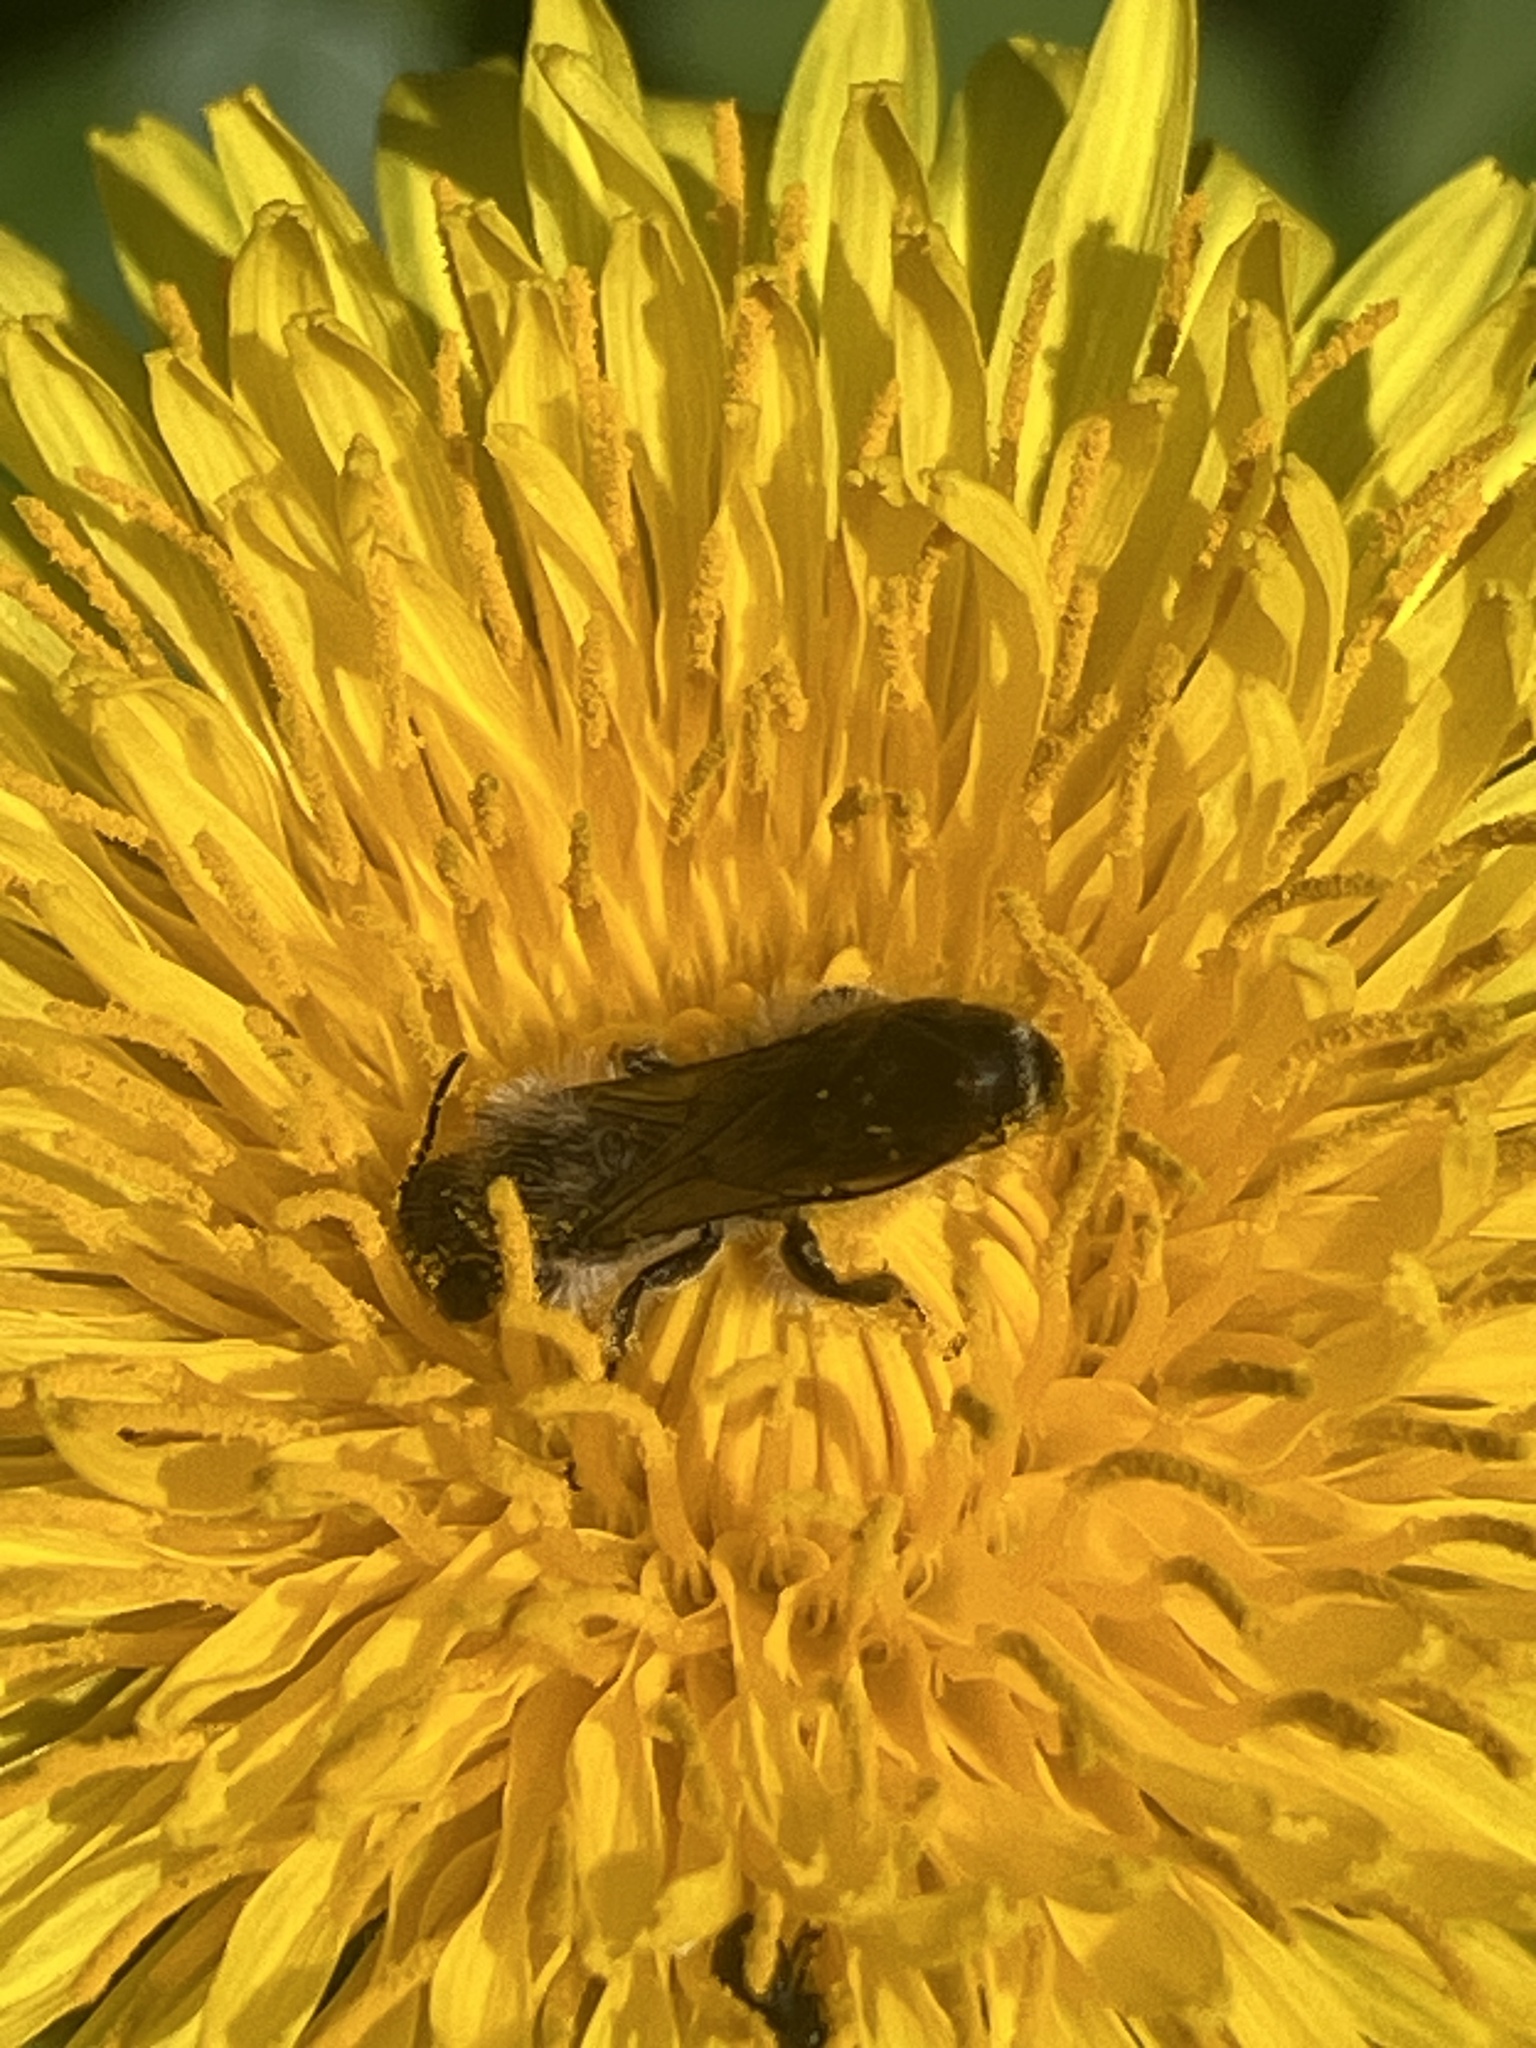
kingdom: Animalia
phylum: Arthropoda
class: Insecta
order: Hymenoptera
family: Megachilidae
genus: Chelostoma
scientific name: Chelostoma florisomne
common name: Sleepy carpenter bee
